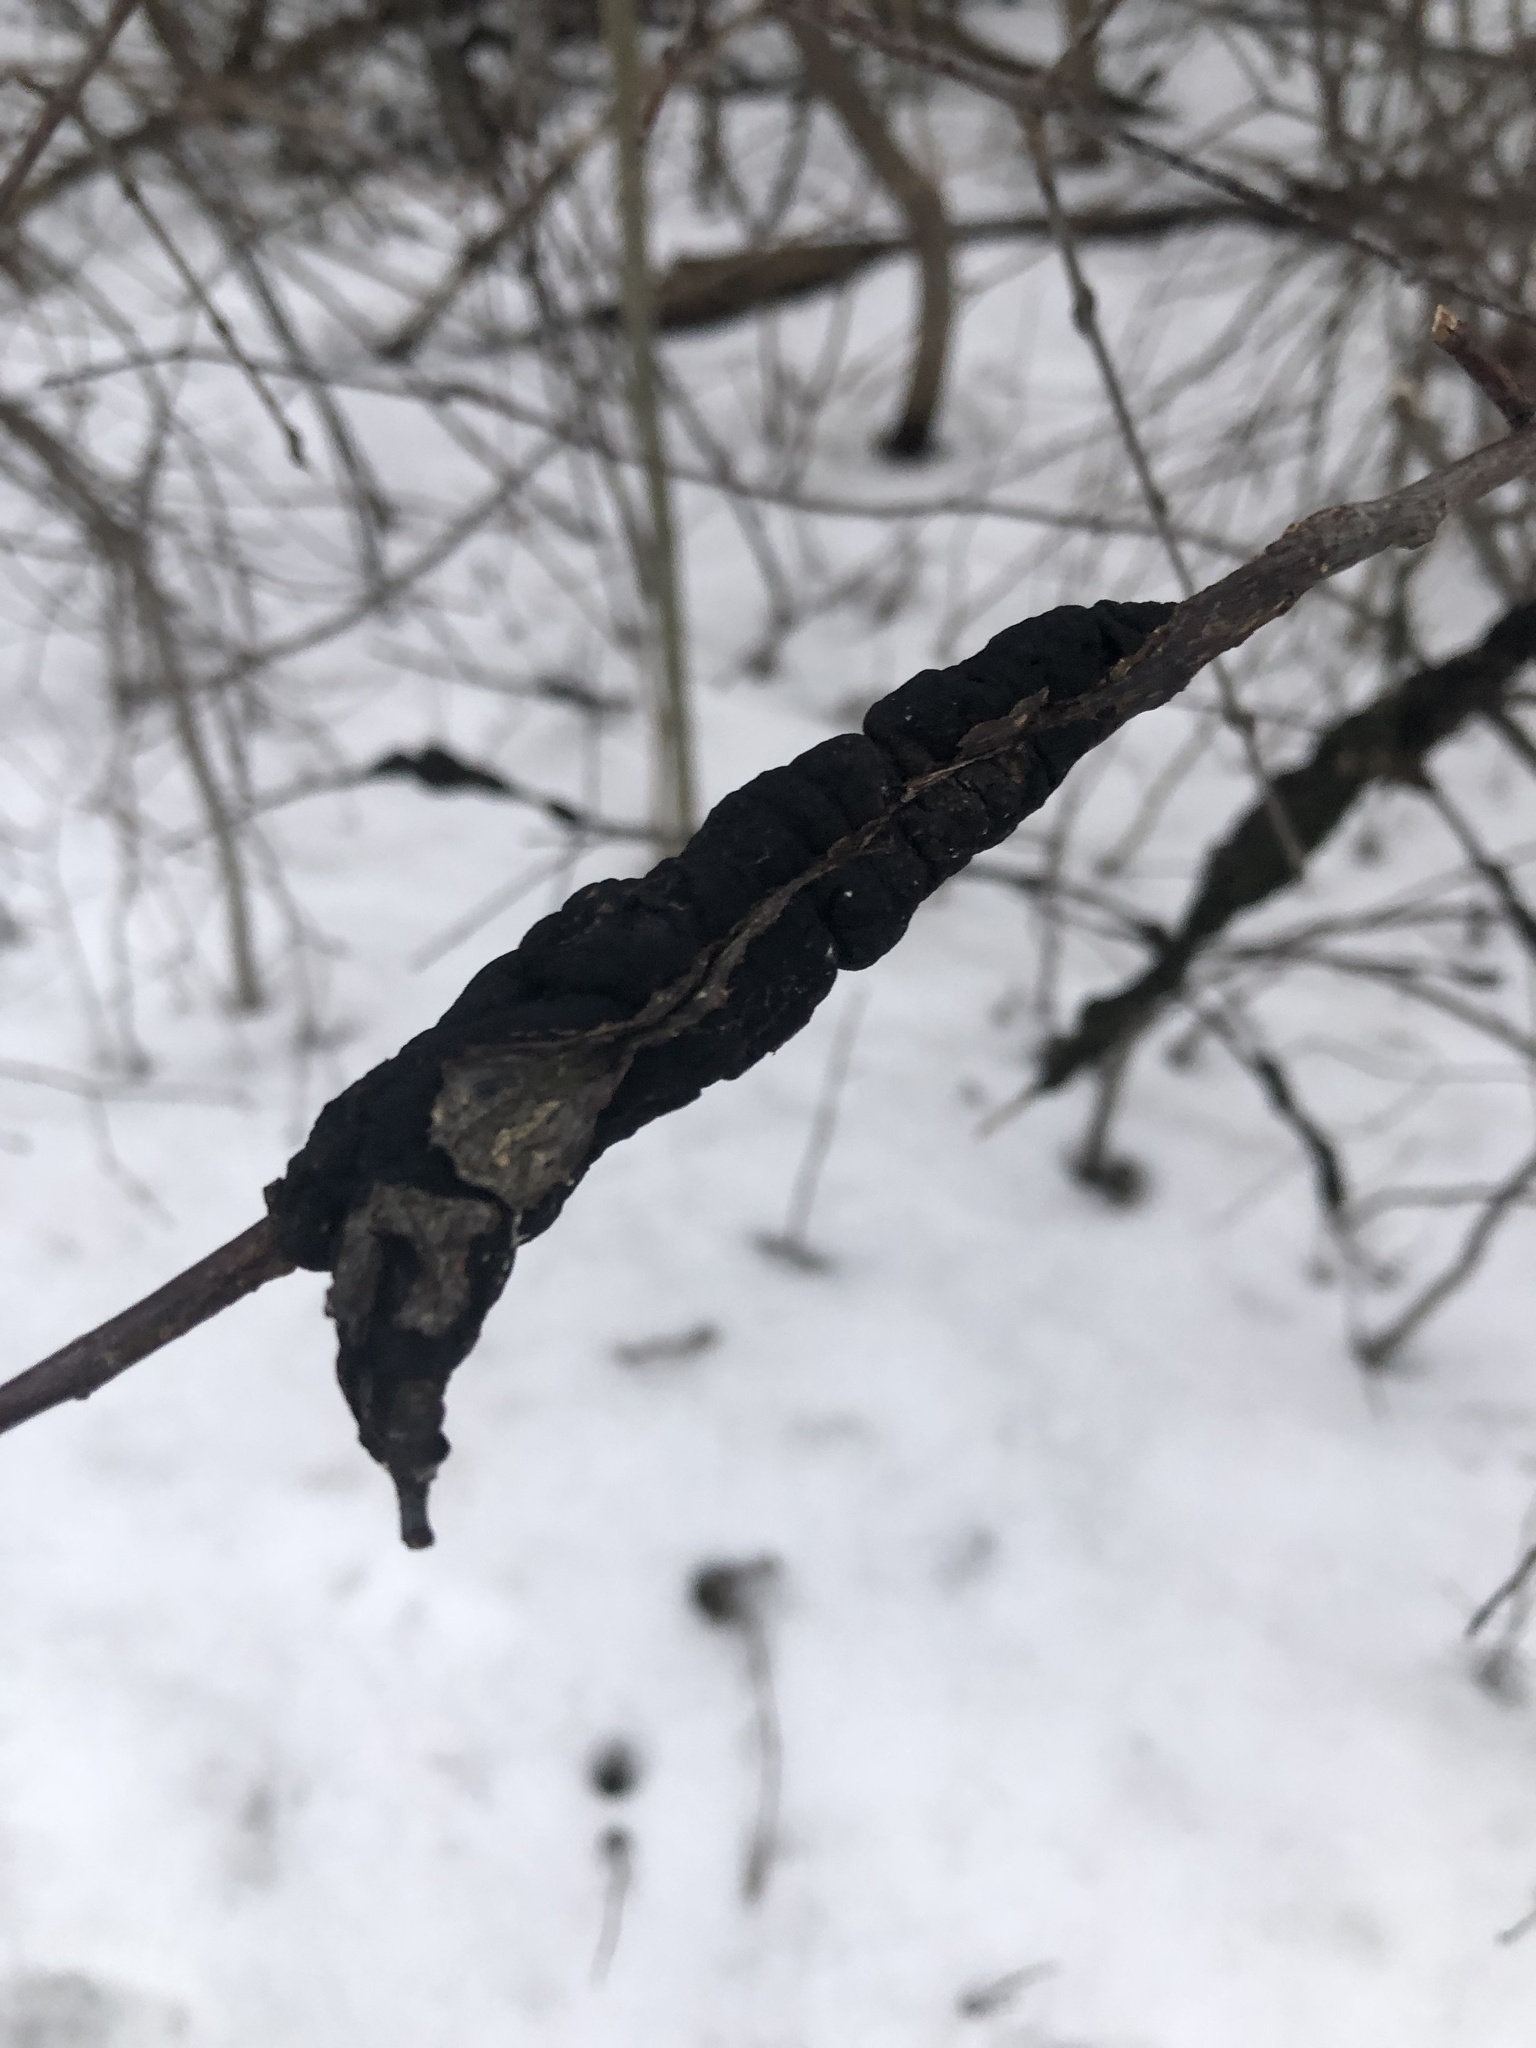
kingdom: Fungi
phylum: Ascomycota
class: Dothideomycetes
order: Venturiales
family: Venturiaceae
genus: Apiosporina
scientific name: Apiosporina morbosa
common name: Black knot
